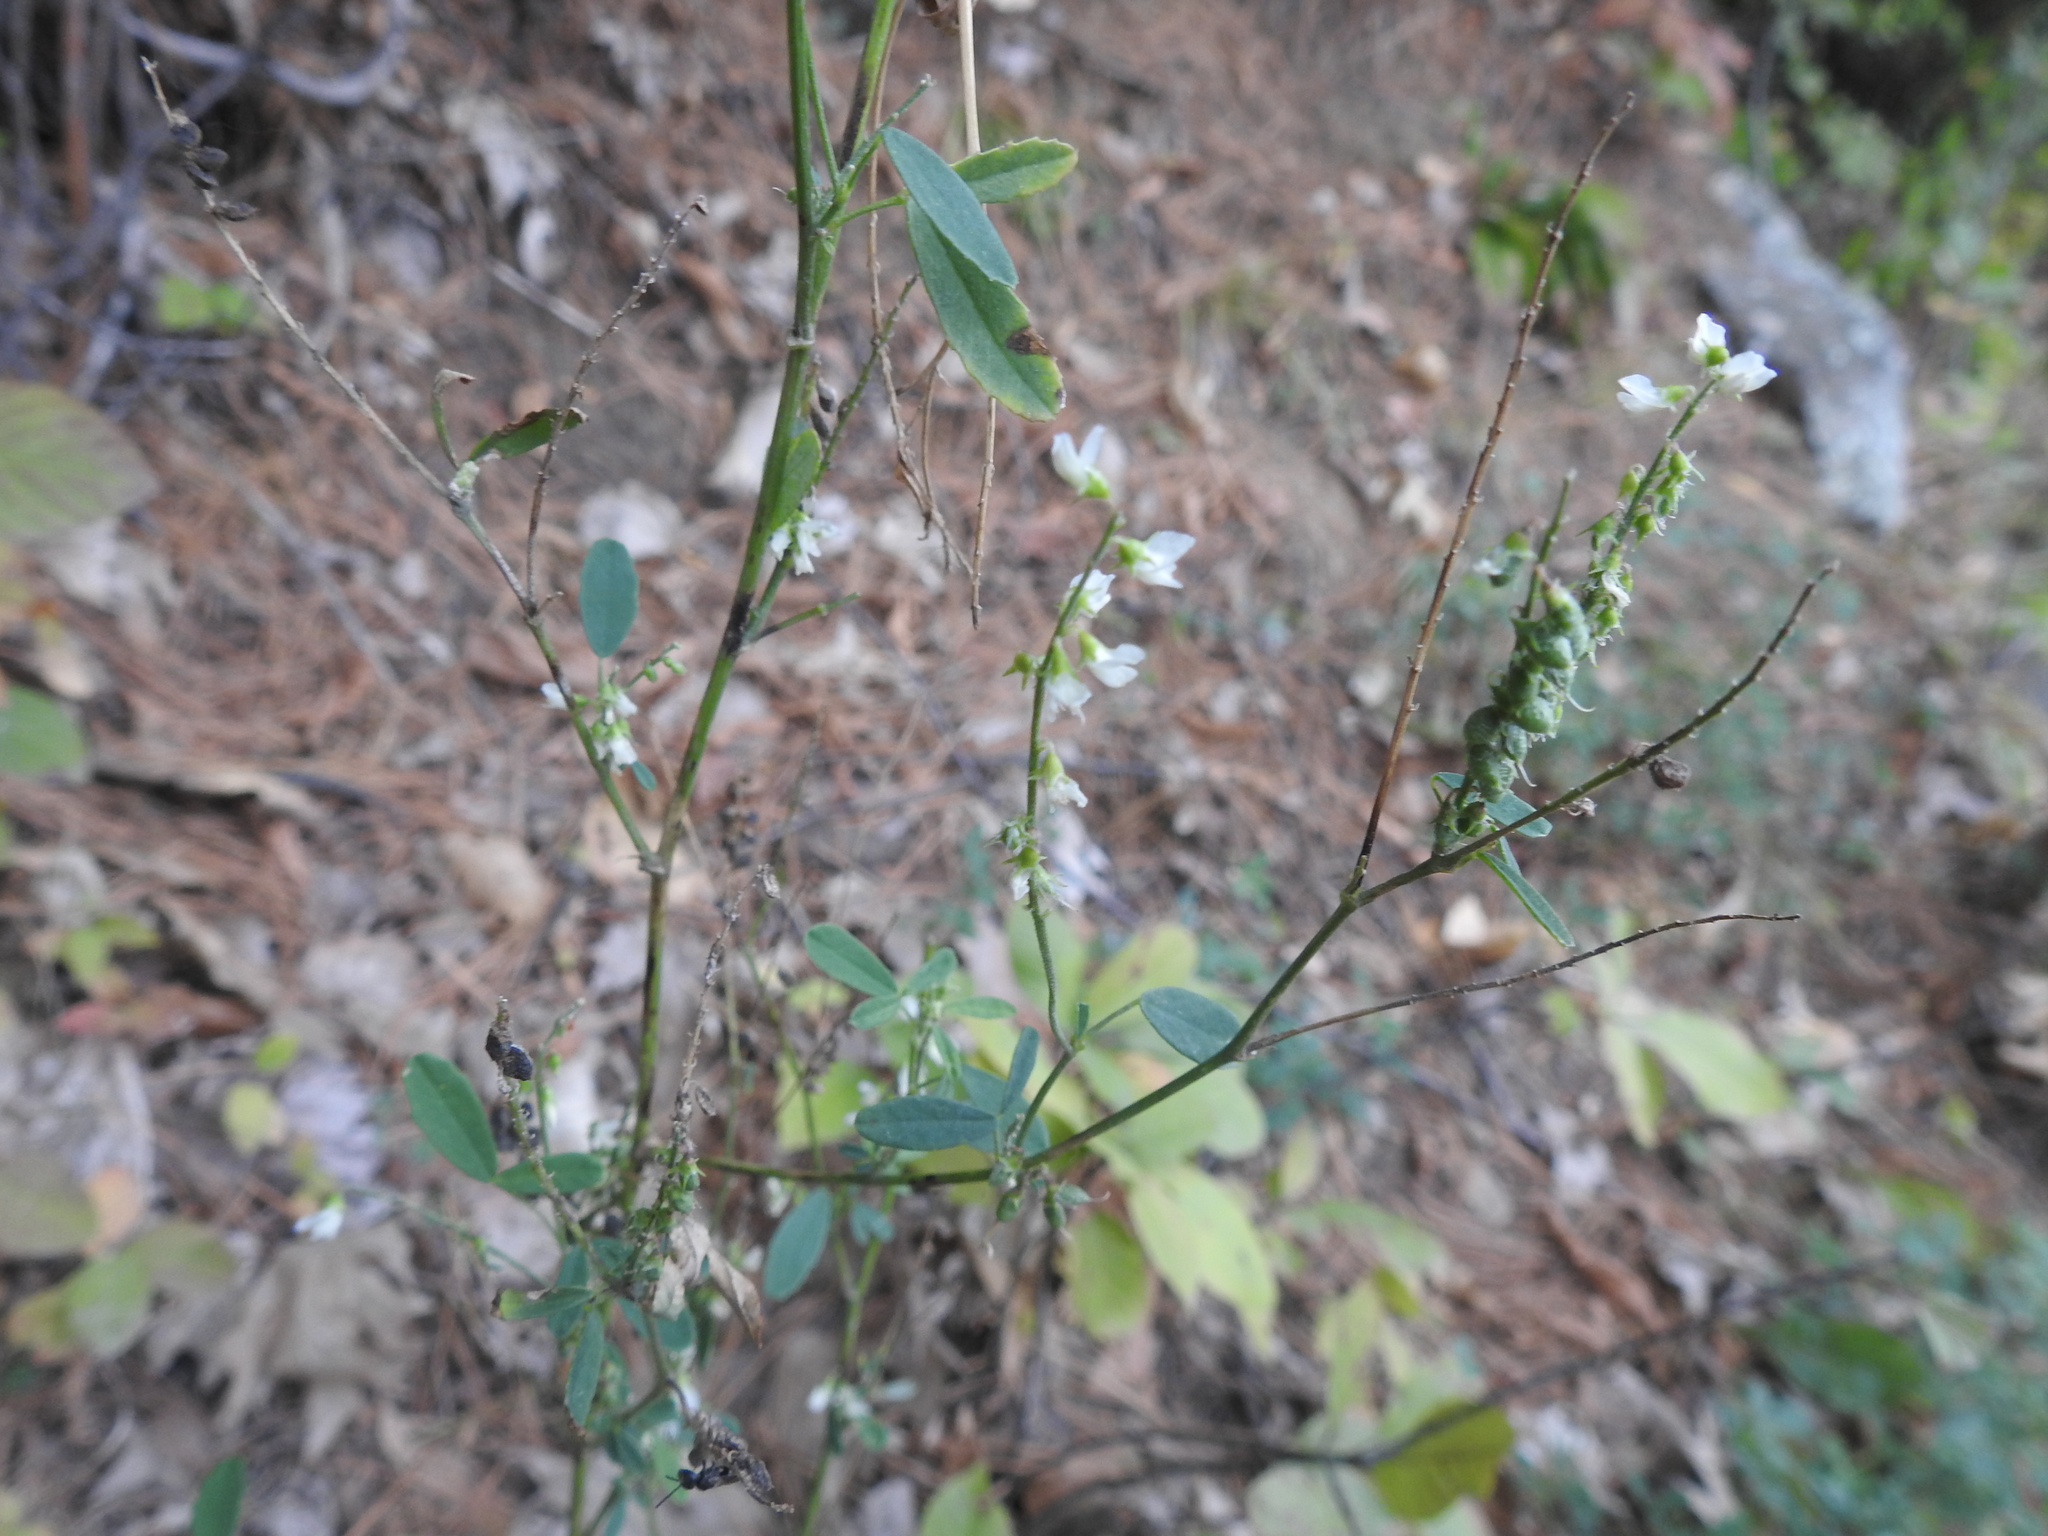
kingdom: Plantae
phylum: Tracheophyta
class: Magnoliopsida
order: Fabales
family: Fabaceae
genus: Melilotus
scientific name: Melilotus albus
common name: White melilot
